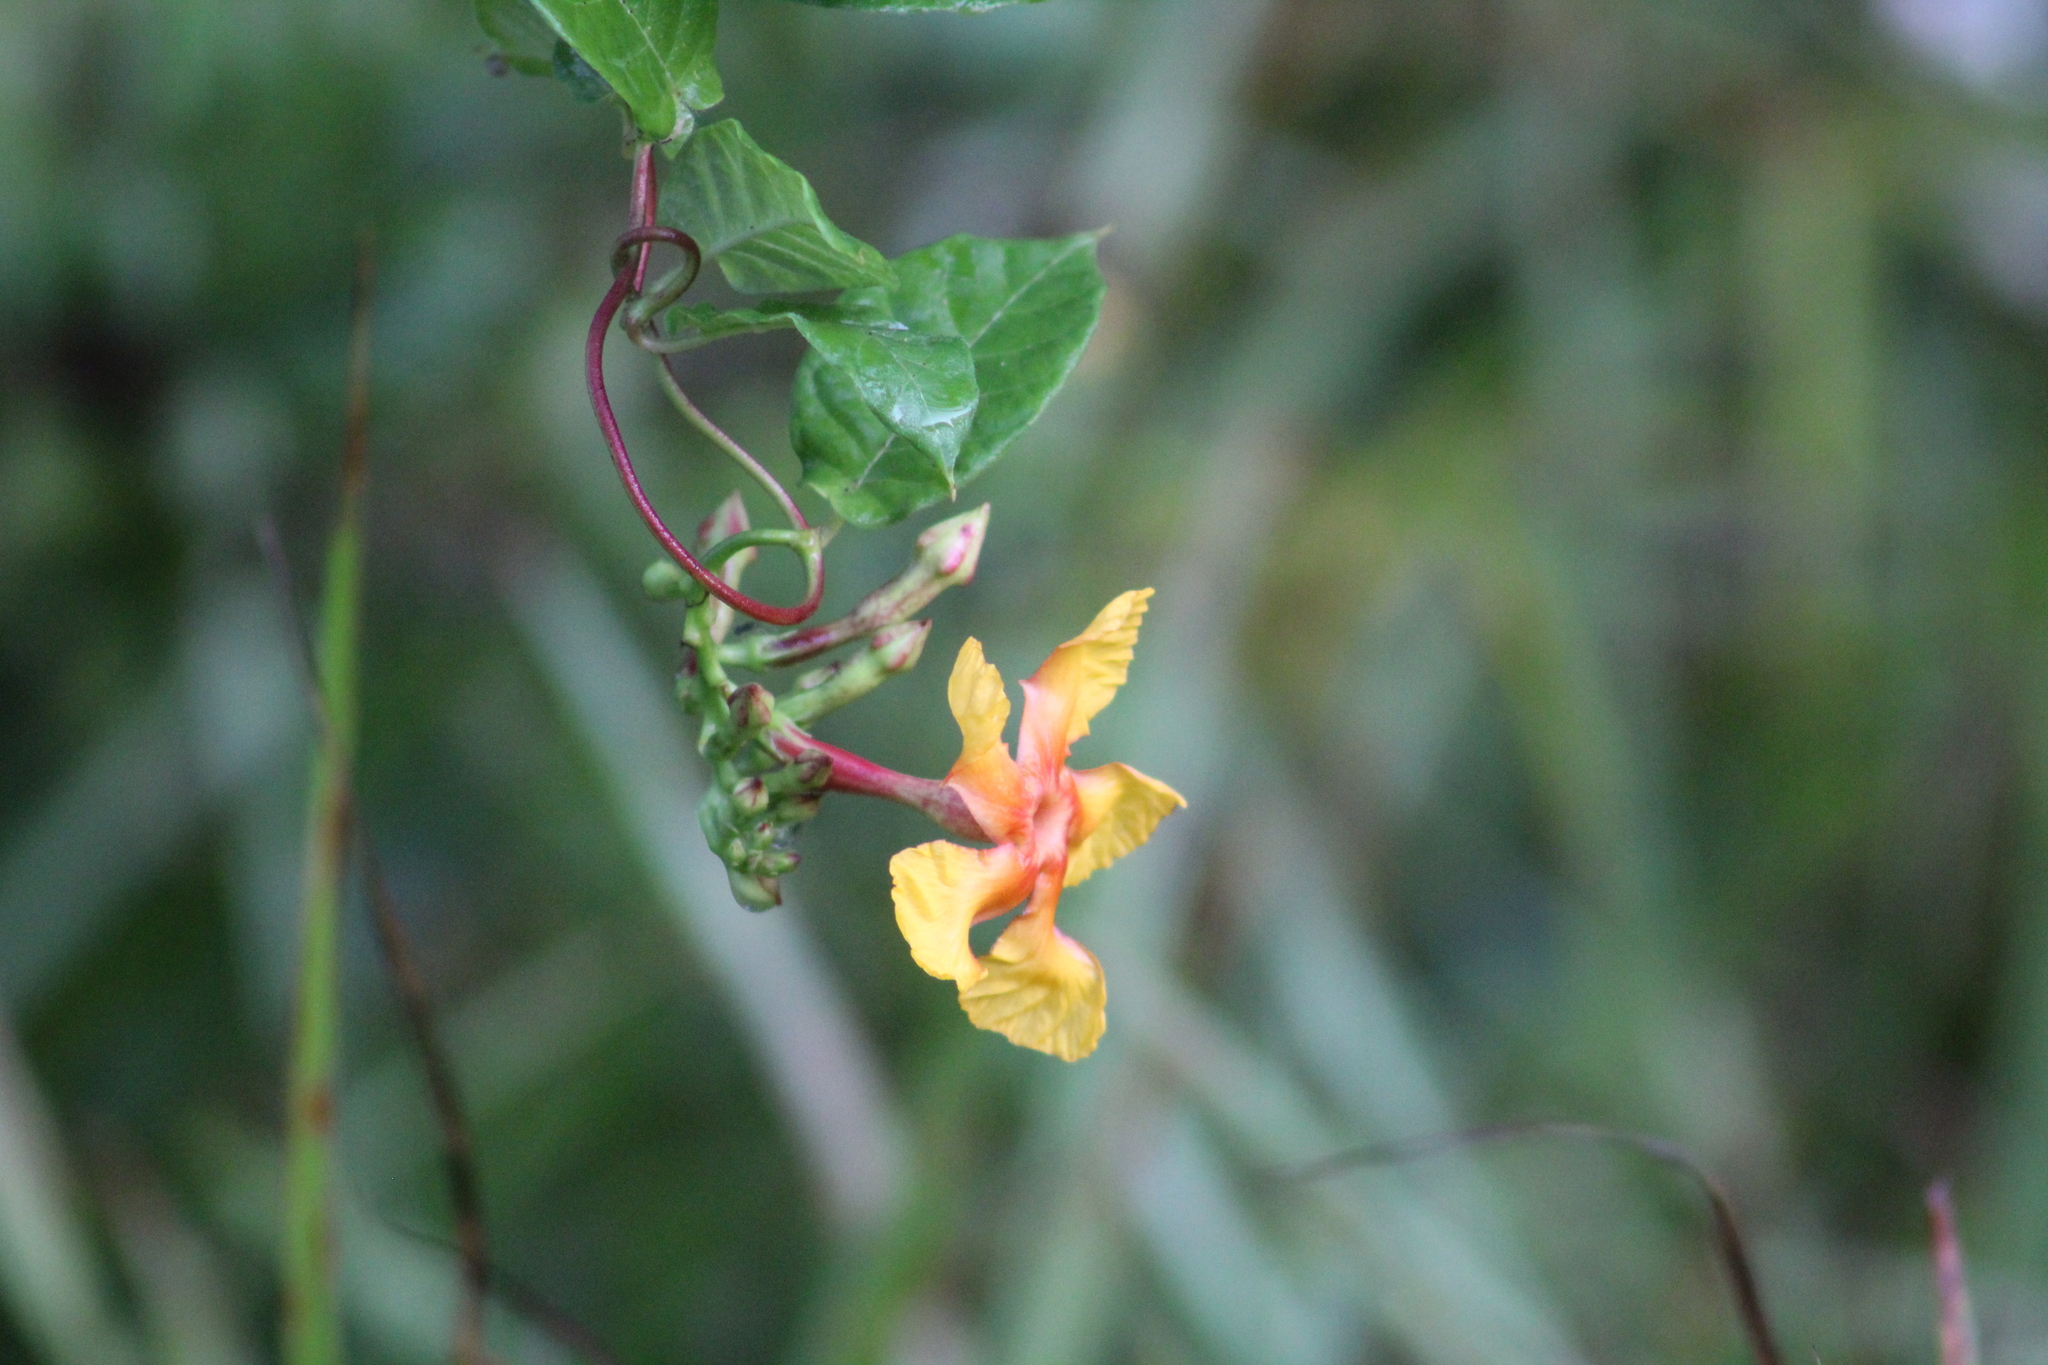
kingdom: Plantae
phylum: Tracheophyta
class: Magnoliopsida
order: Gentianales
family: Apocynaceae
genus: Mandevilla
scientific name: Mandevilla subsagittata
